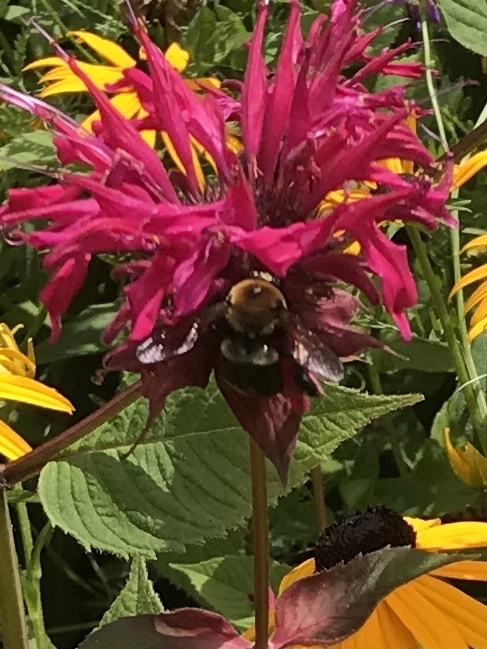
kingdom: Animalia
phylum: Arthropoda
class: Insecta
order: Hymenoptera
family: Apidae
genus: Xylocopa
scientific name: Xylocopa virginica
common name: Carpenter bee
